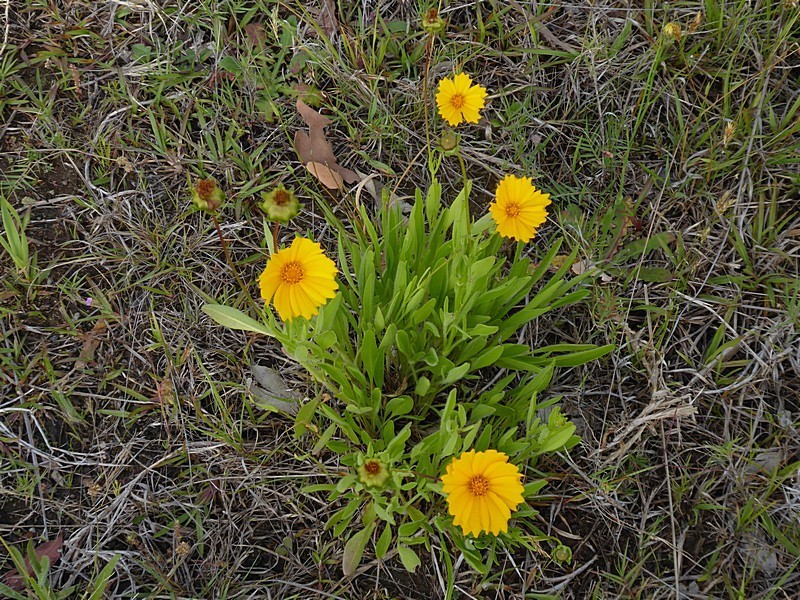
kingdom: Plantae
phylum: Tracheophyta
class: Magnoliopsida
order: Asterales
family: Asteraceae
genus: Coreopsis
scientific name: Coreopsis lanceolata
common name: Garden coreopsis
